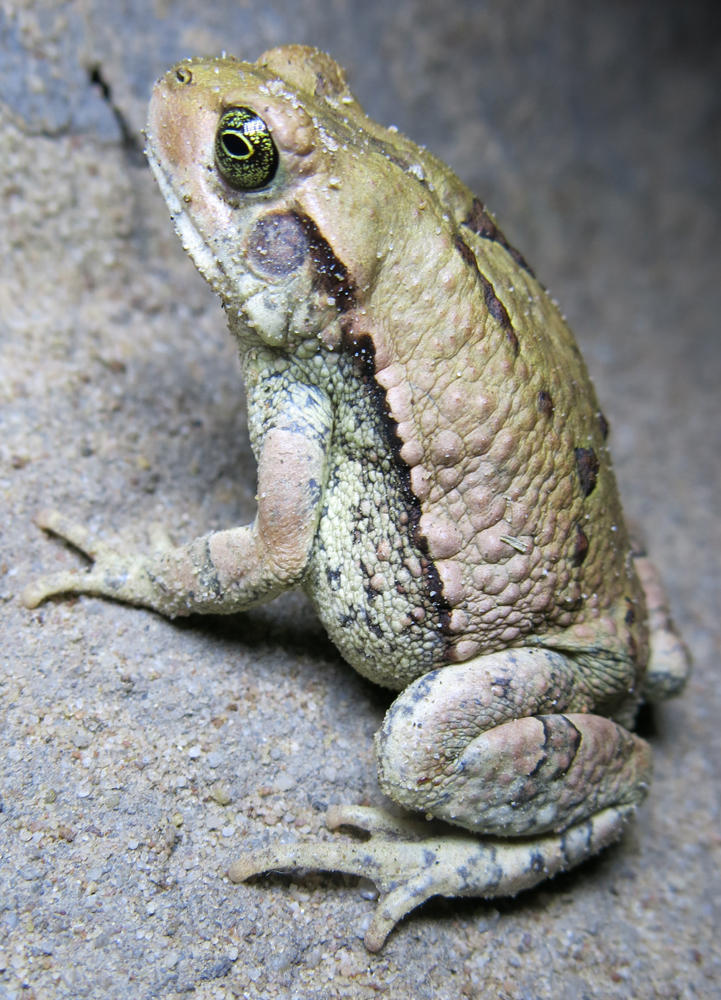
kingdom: Animalia
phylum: Chordata
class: Amphibia
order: Anura
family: Bufonidae
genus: Schismaderma
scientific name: Schismaderma carens
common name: African split-skin toad
